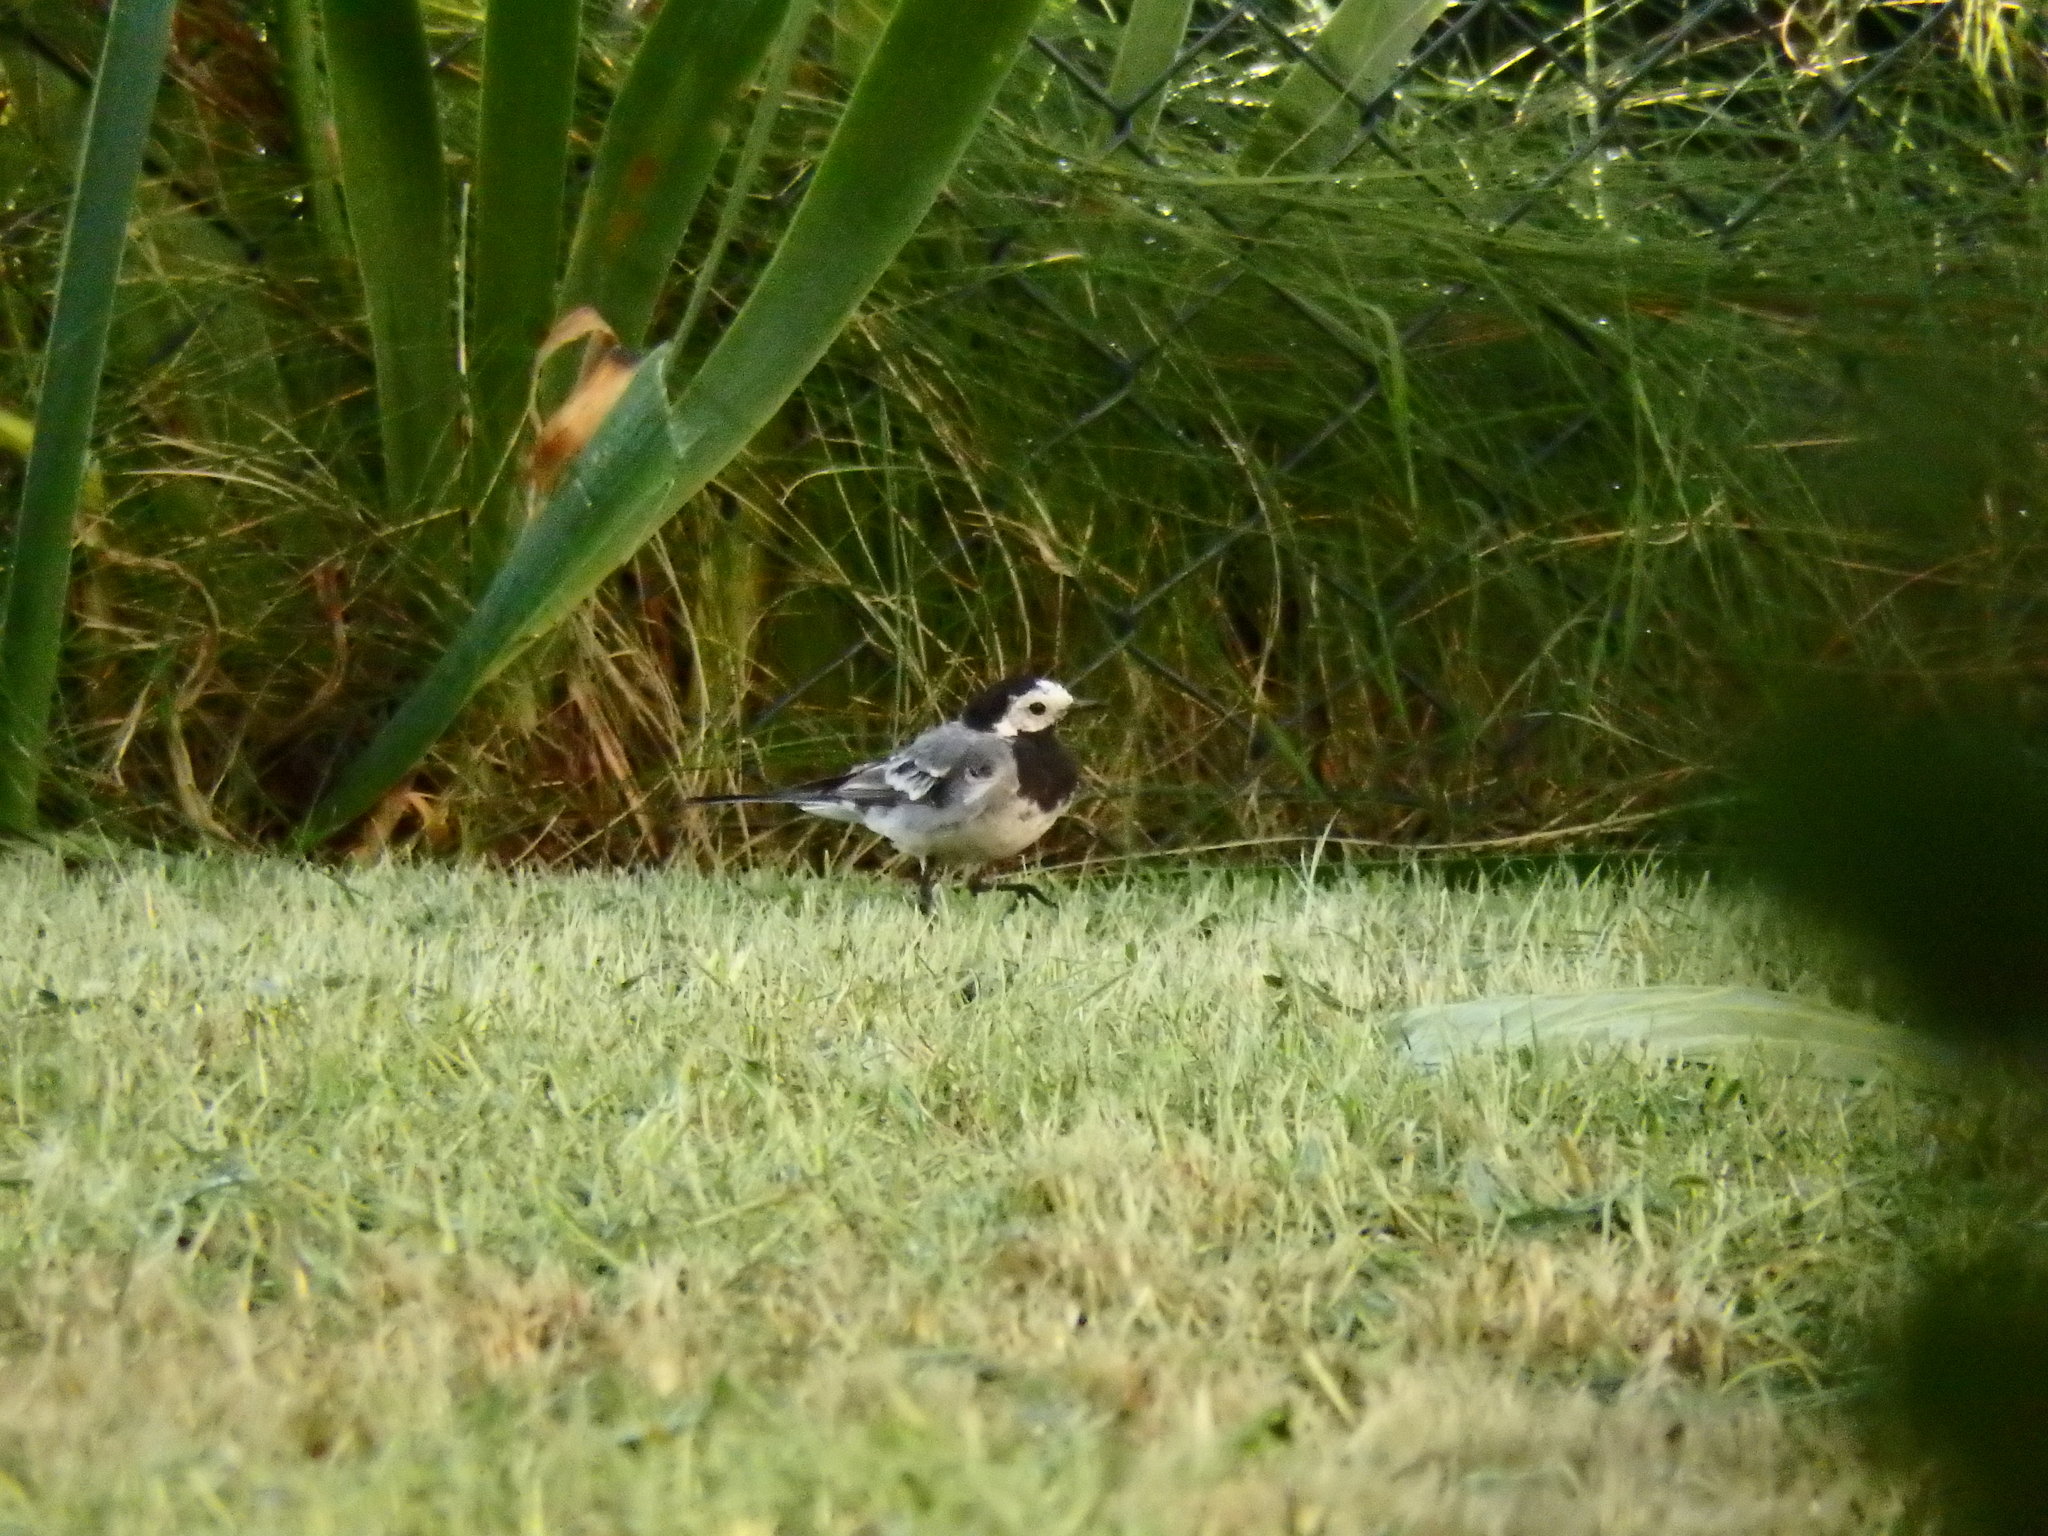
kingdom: Animalia
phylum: Chordata
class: Aves
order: Passeriformes
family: Motacillidae
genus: Motacilla
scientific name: Motacilla alba
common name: White wagtail
